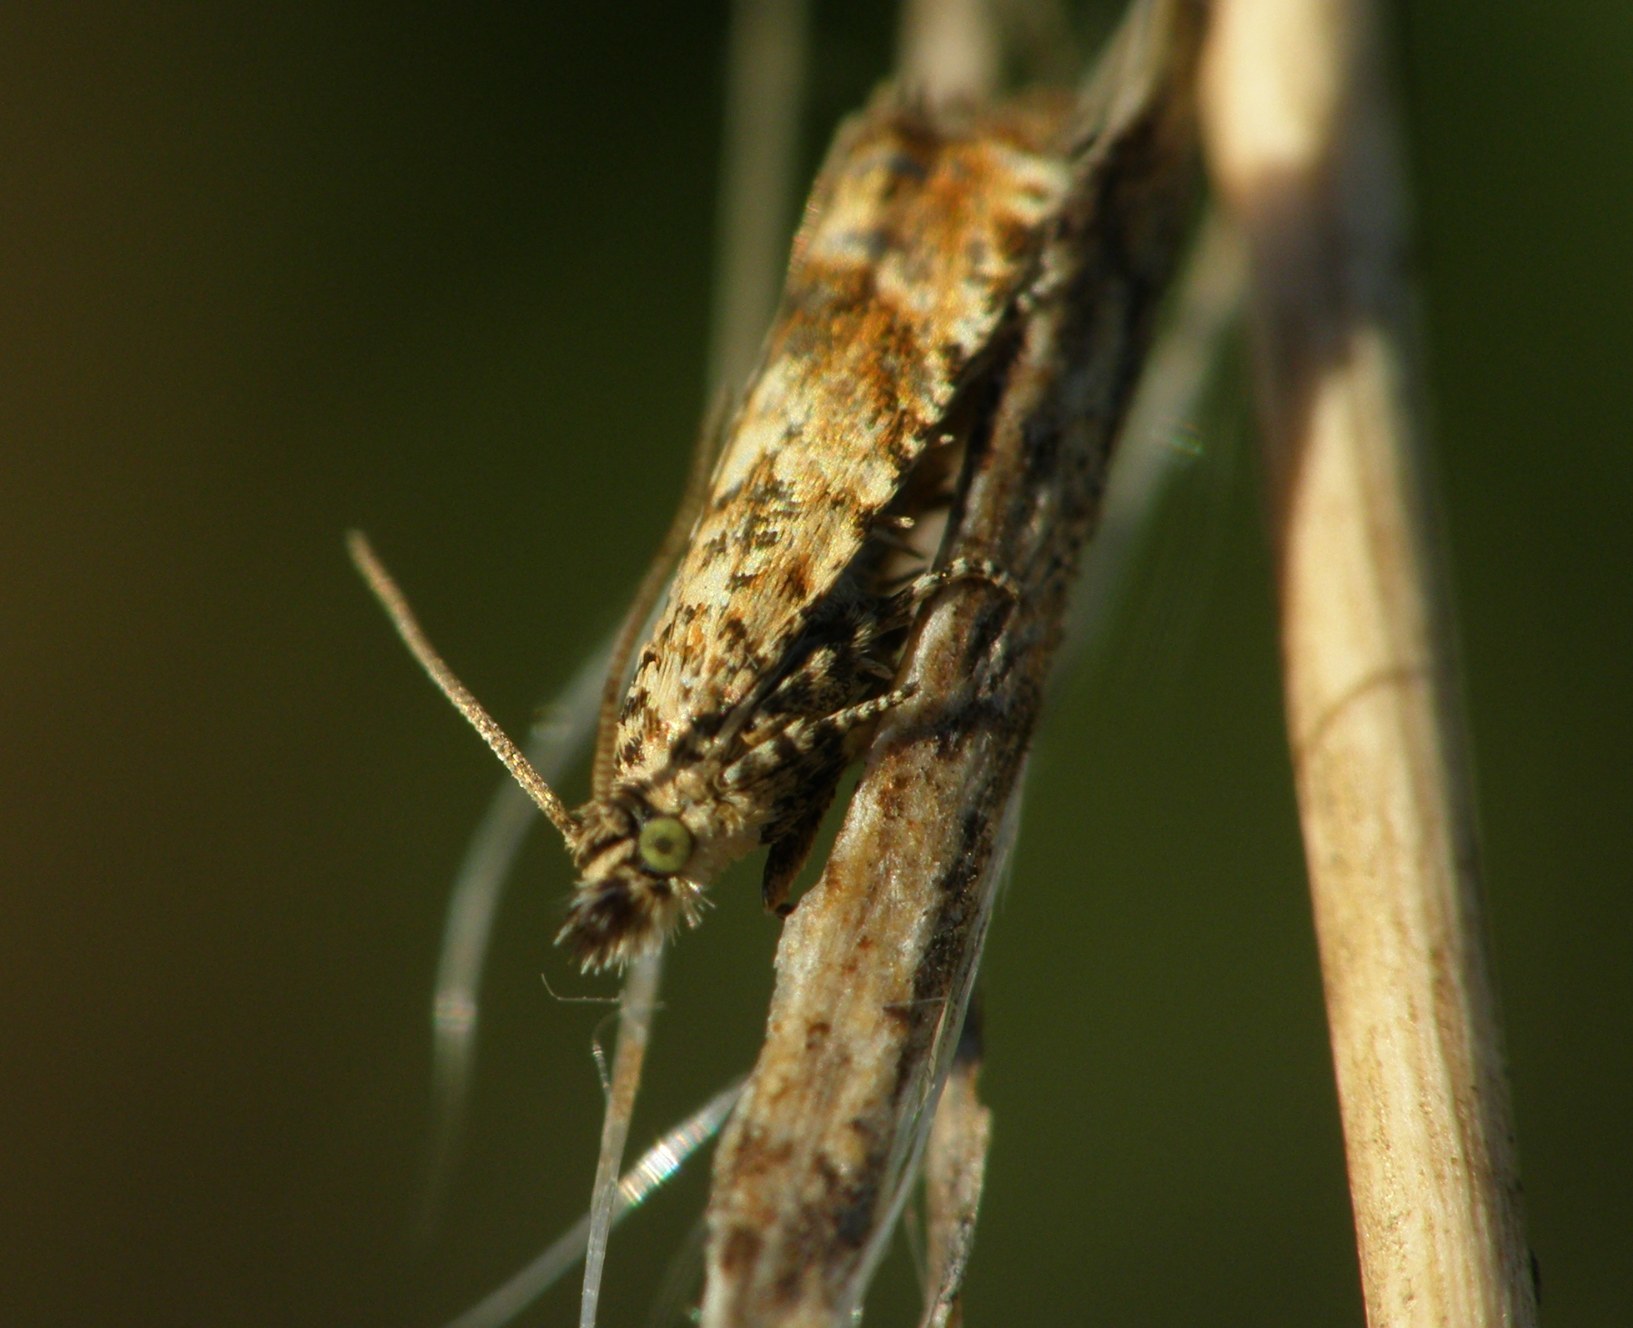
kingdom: Animalia
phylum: Arthropoda
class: Insecta
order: Lepidoptera
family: Tortricidae
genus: Epinotia
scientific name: Epinotia kochiana
